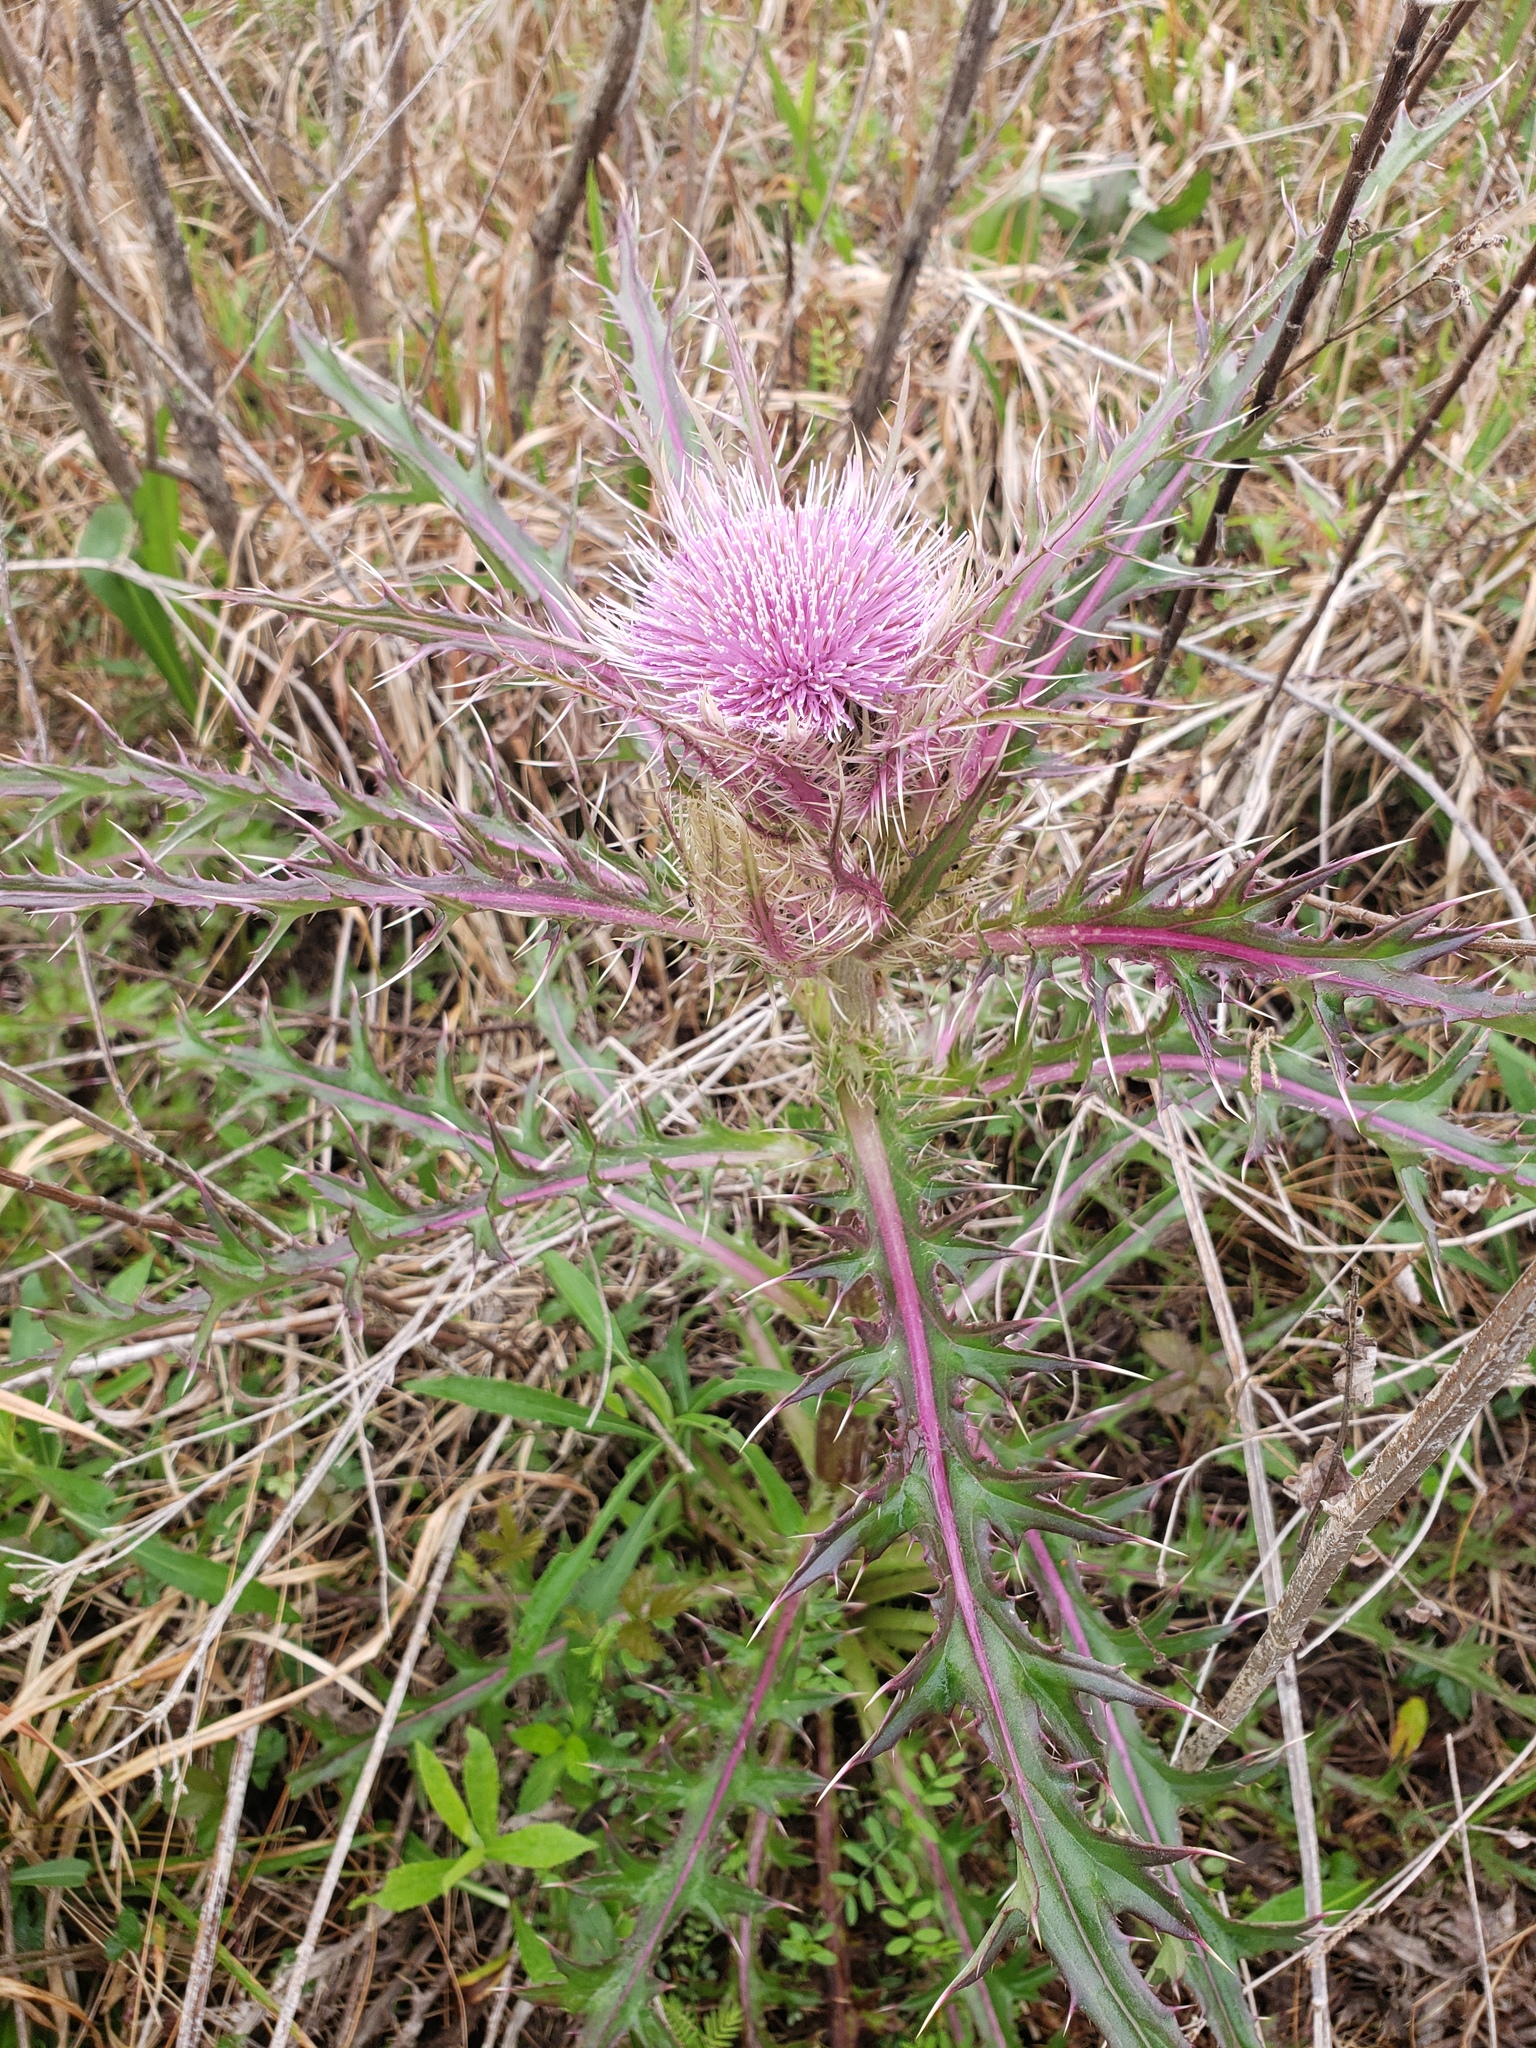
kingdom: Plantae
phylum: Tracheophyta
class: Magnoliopsida
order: Asterales
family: Asteraceae
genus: Cirsium
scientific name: Cirsium horridulum
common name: Bristly thistle
